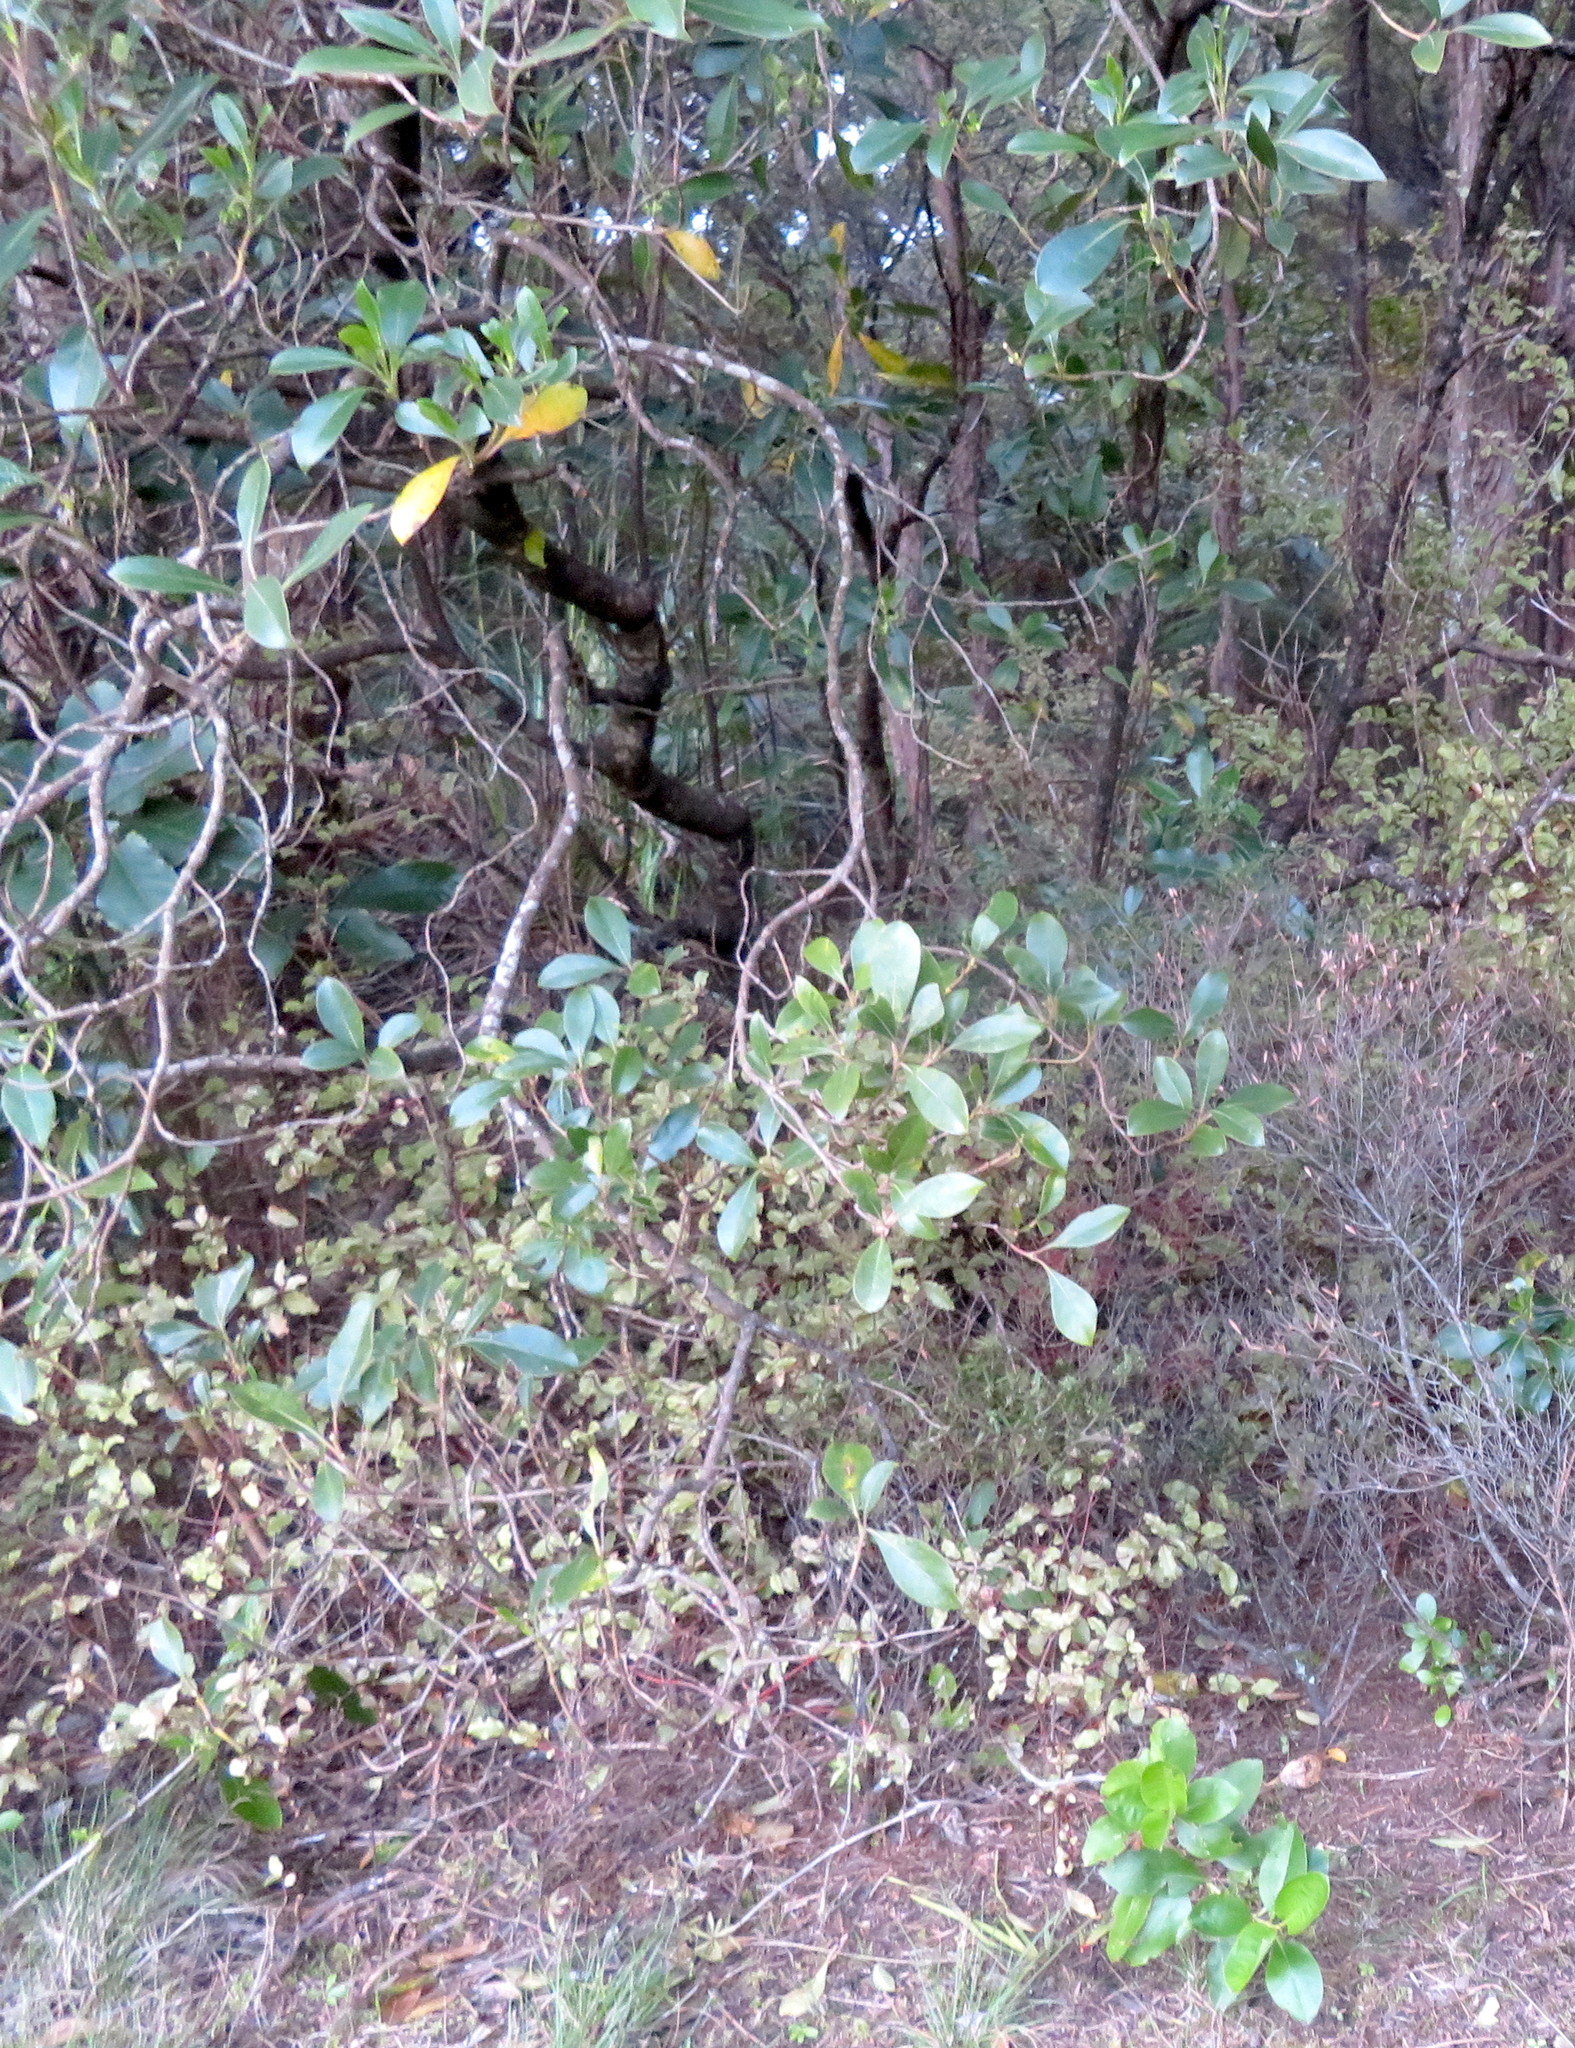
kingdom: Plantae
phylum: Tracheophyta
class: Magnoliopsida
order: Gentianales
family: Rubiaceae
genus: Coprosma
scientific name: Coprosma lucida
